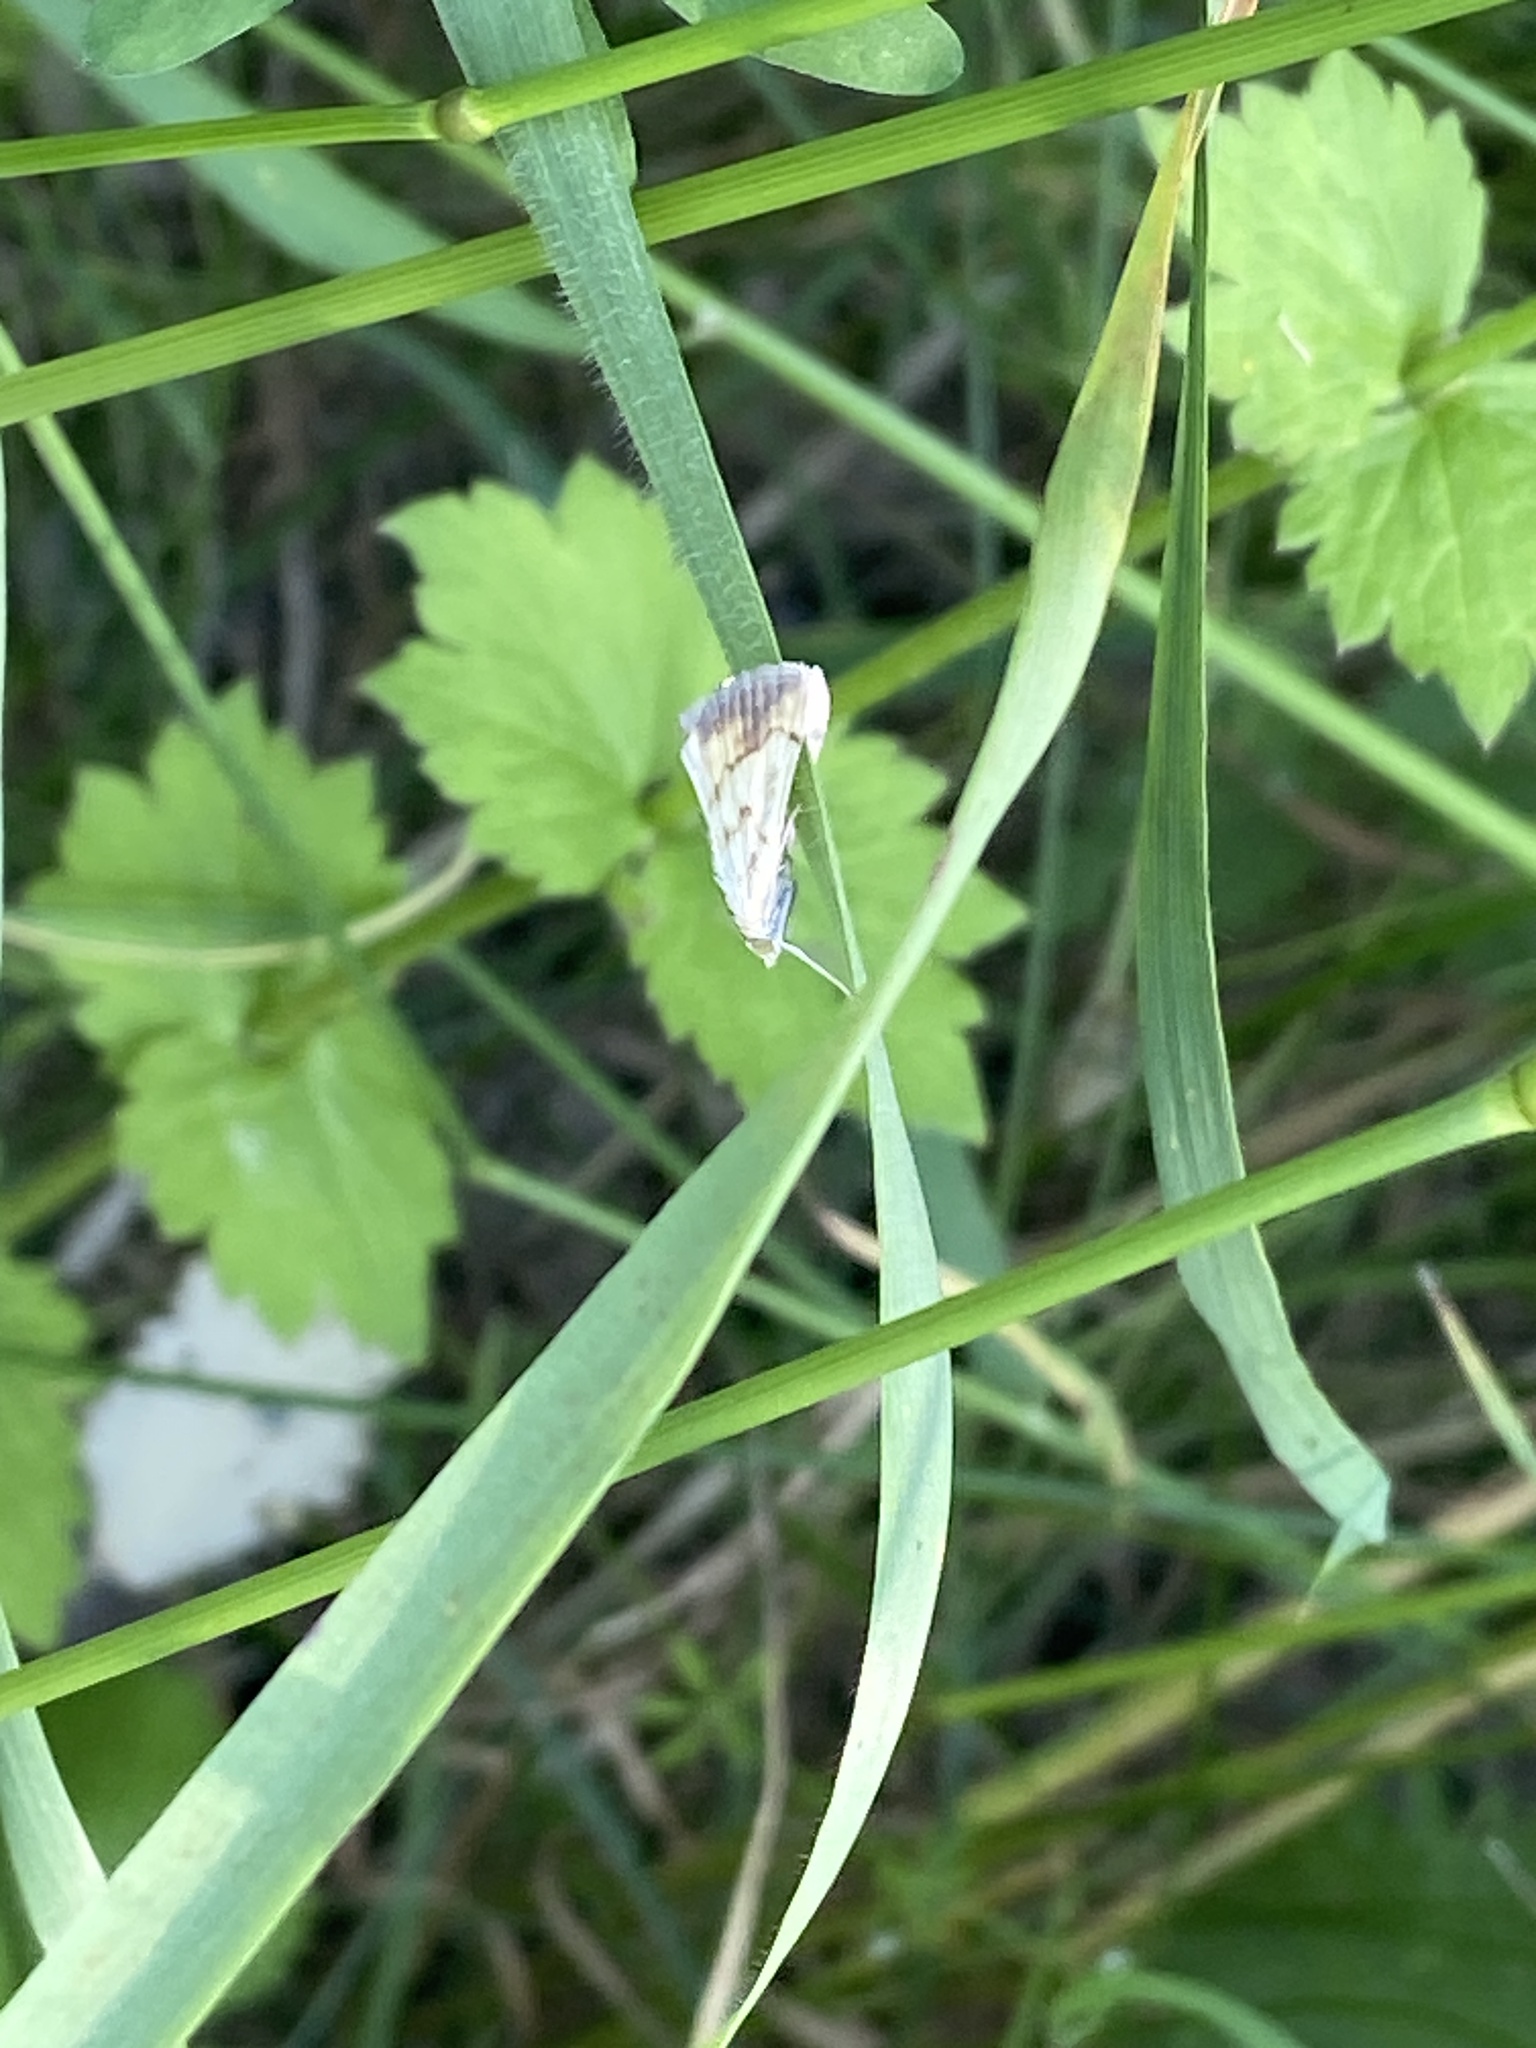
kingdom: Animalia
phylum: Arthropoda
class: Insecta
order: Lepidoptera
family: Crambidae
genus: Evergestis
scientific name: Evergestis extimalis
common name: Marbled yellow pearl
